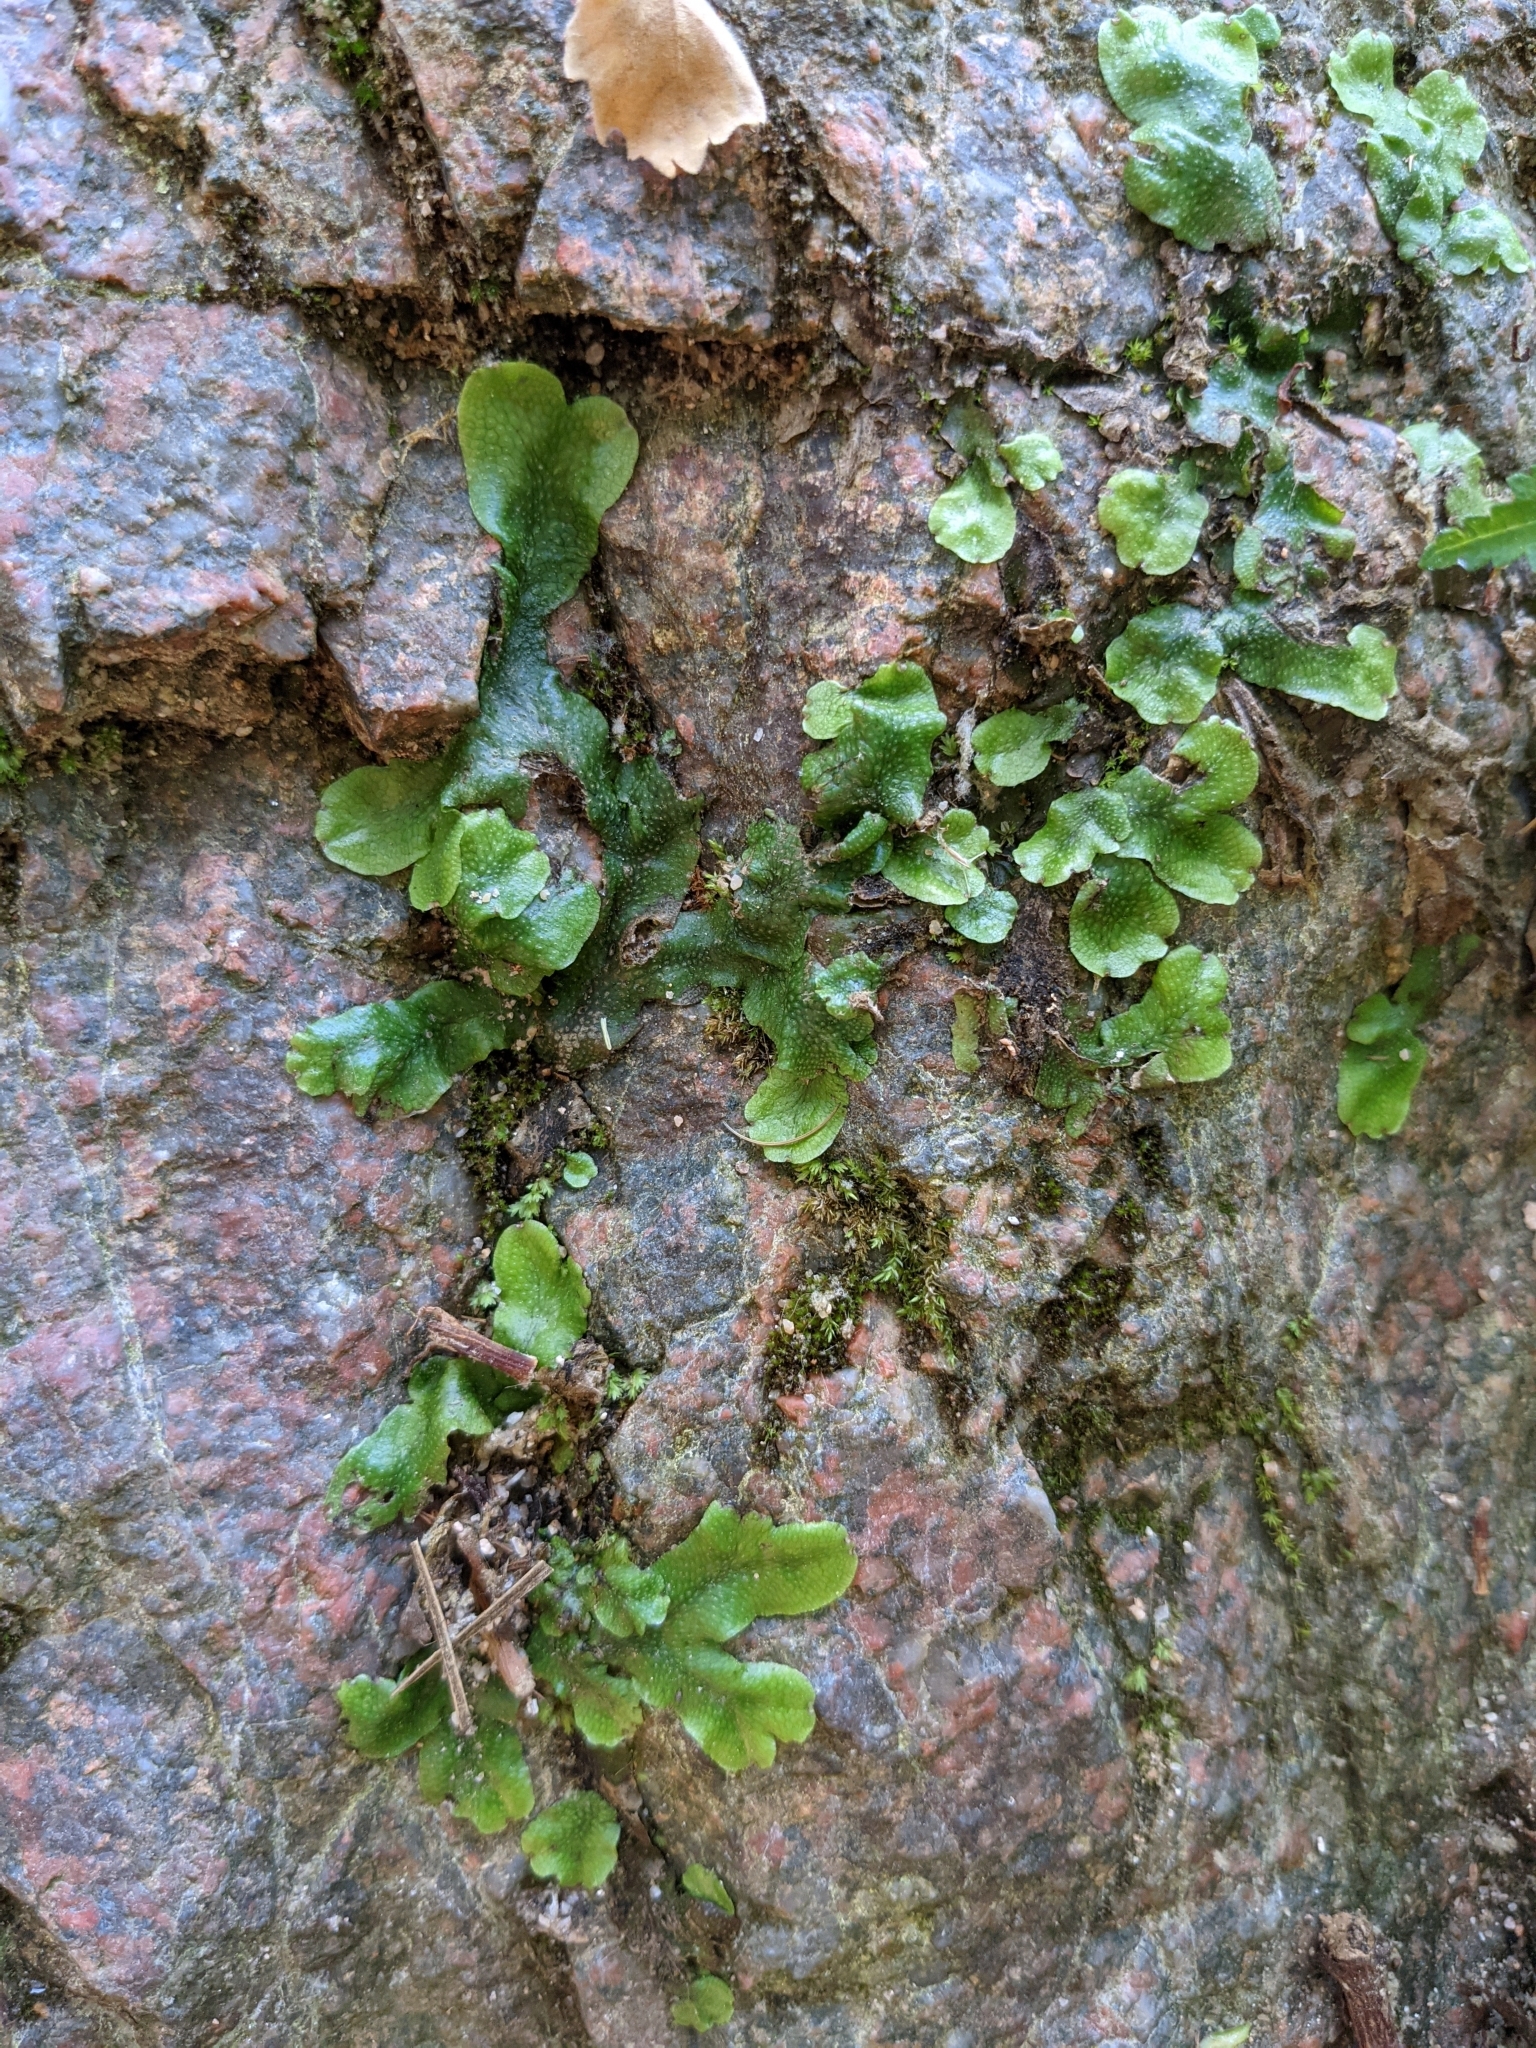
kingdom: Plantae
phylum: Marchantiophyta
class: Marchantiopsida
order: Marchantiales
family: Conocephalaceae
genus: Conocephalum
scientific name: Conocephalum conicum
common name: Great scented liverwort
